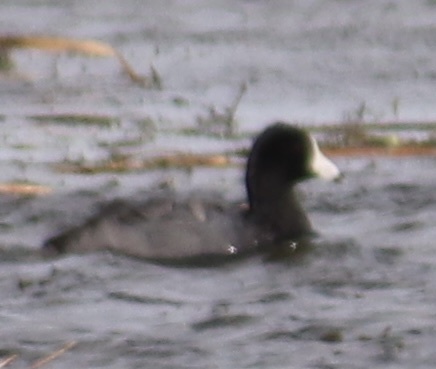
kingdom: Animalia
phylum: Chordata
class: Aves
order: Gruiformes
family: Rallidae
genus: Fulica
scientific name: Fulica americana
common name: American coot
